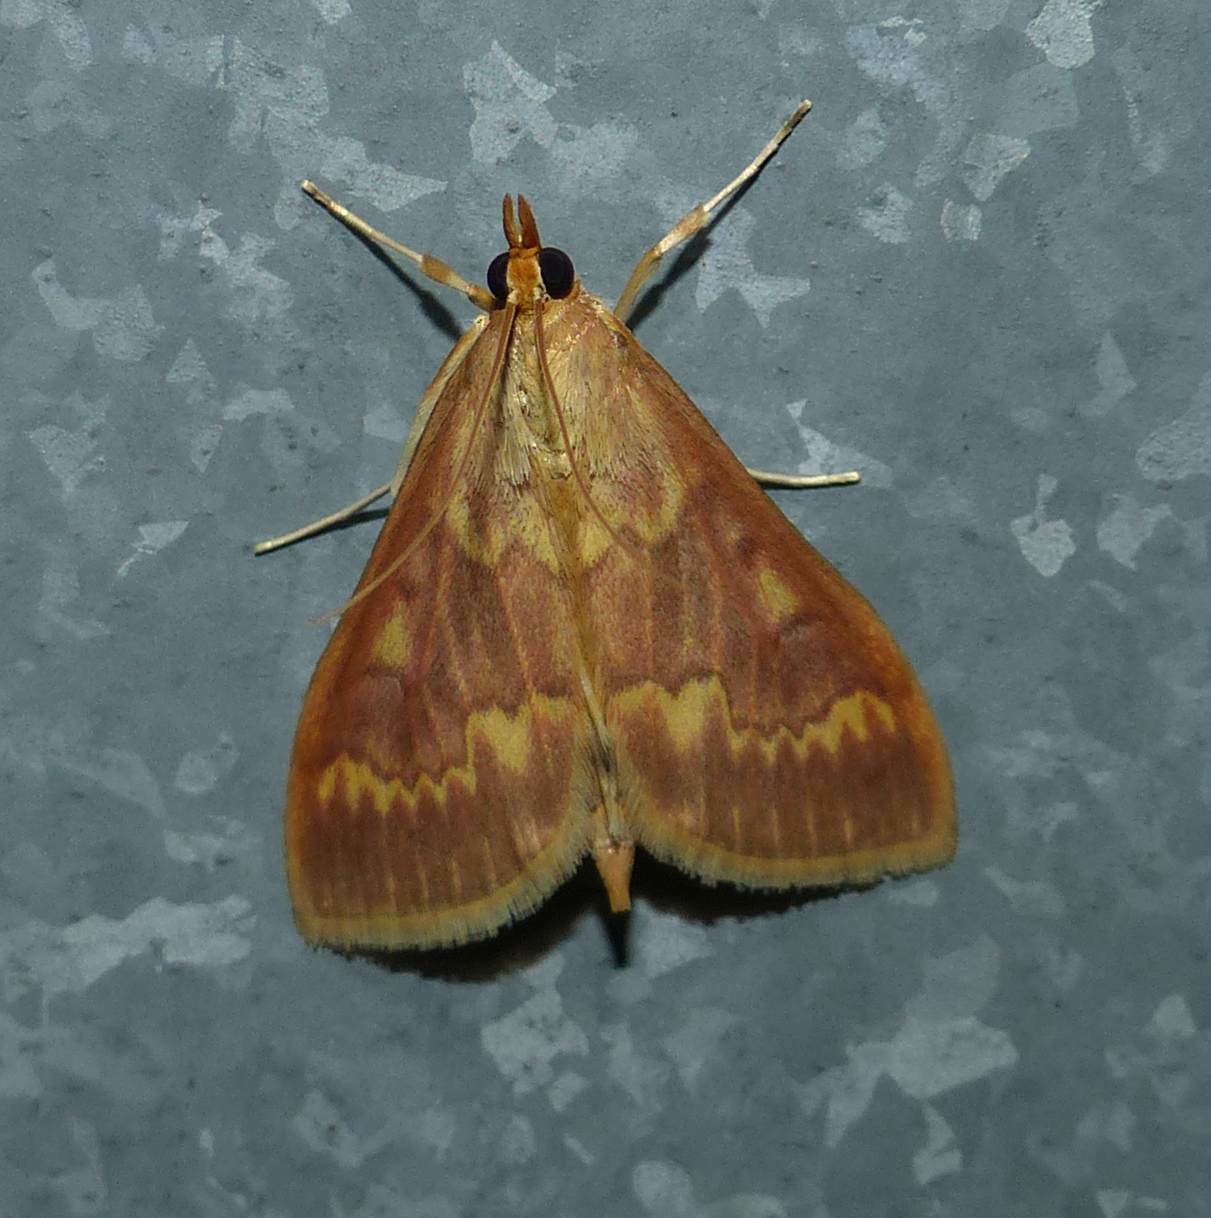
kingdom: Animalia
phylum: Arthropoda
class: Insecta
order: Lepidoptera
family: Crambidae
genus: Ostrinia
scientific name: Ostrinia nubilalis
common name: European corn borer
